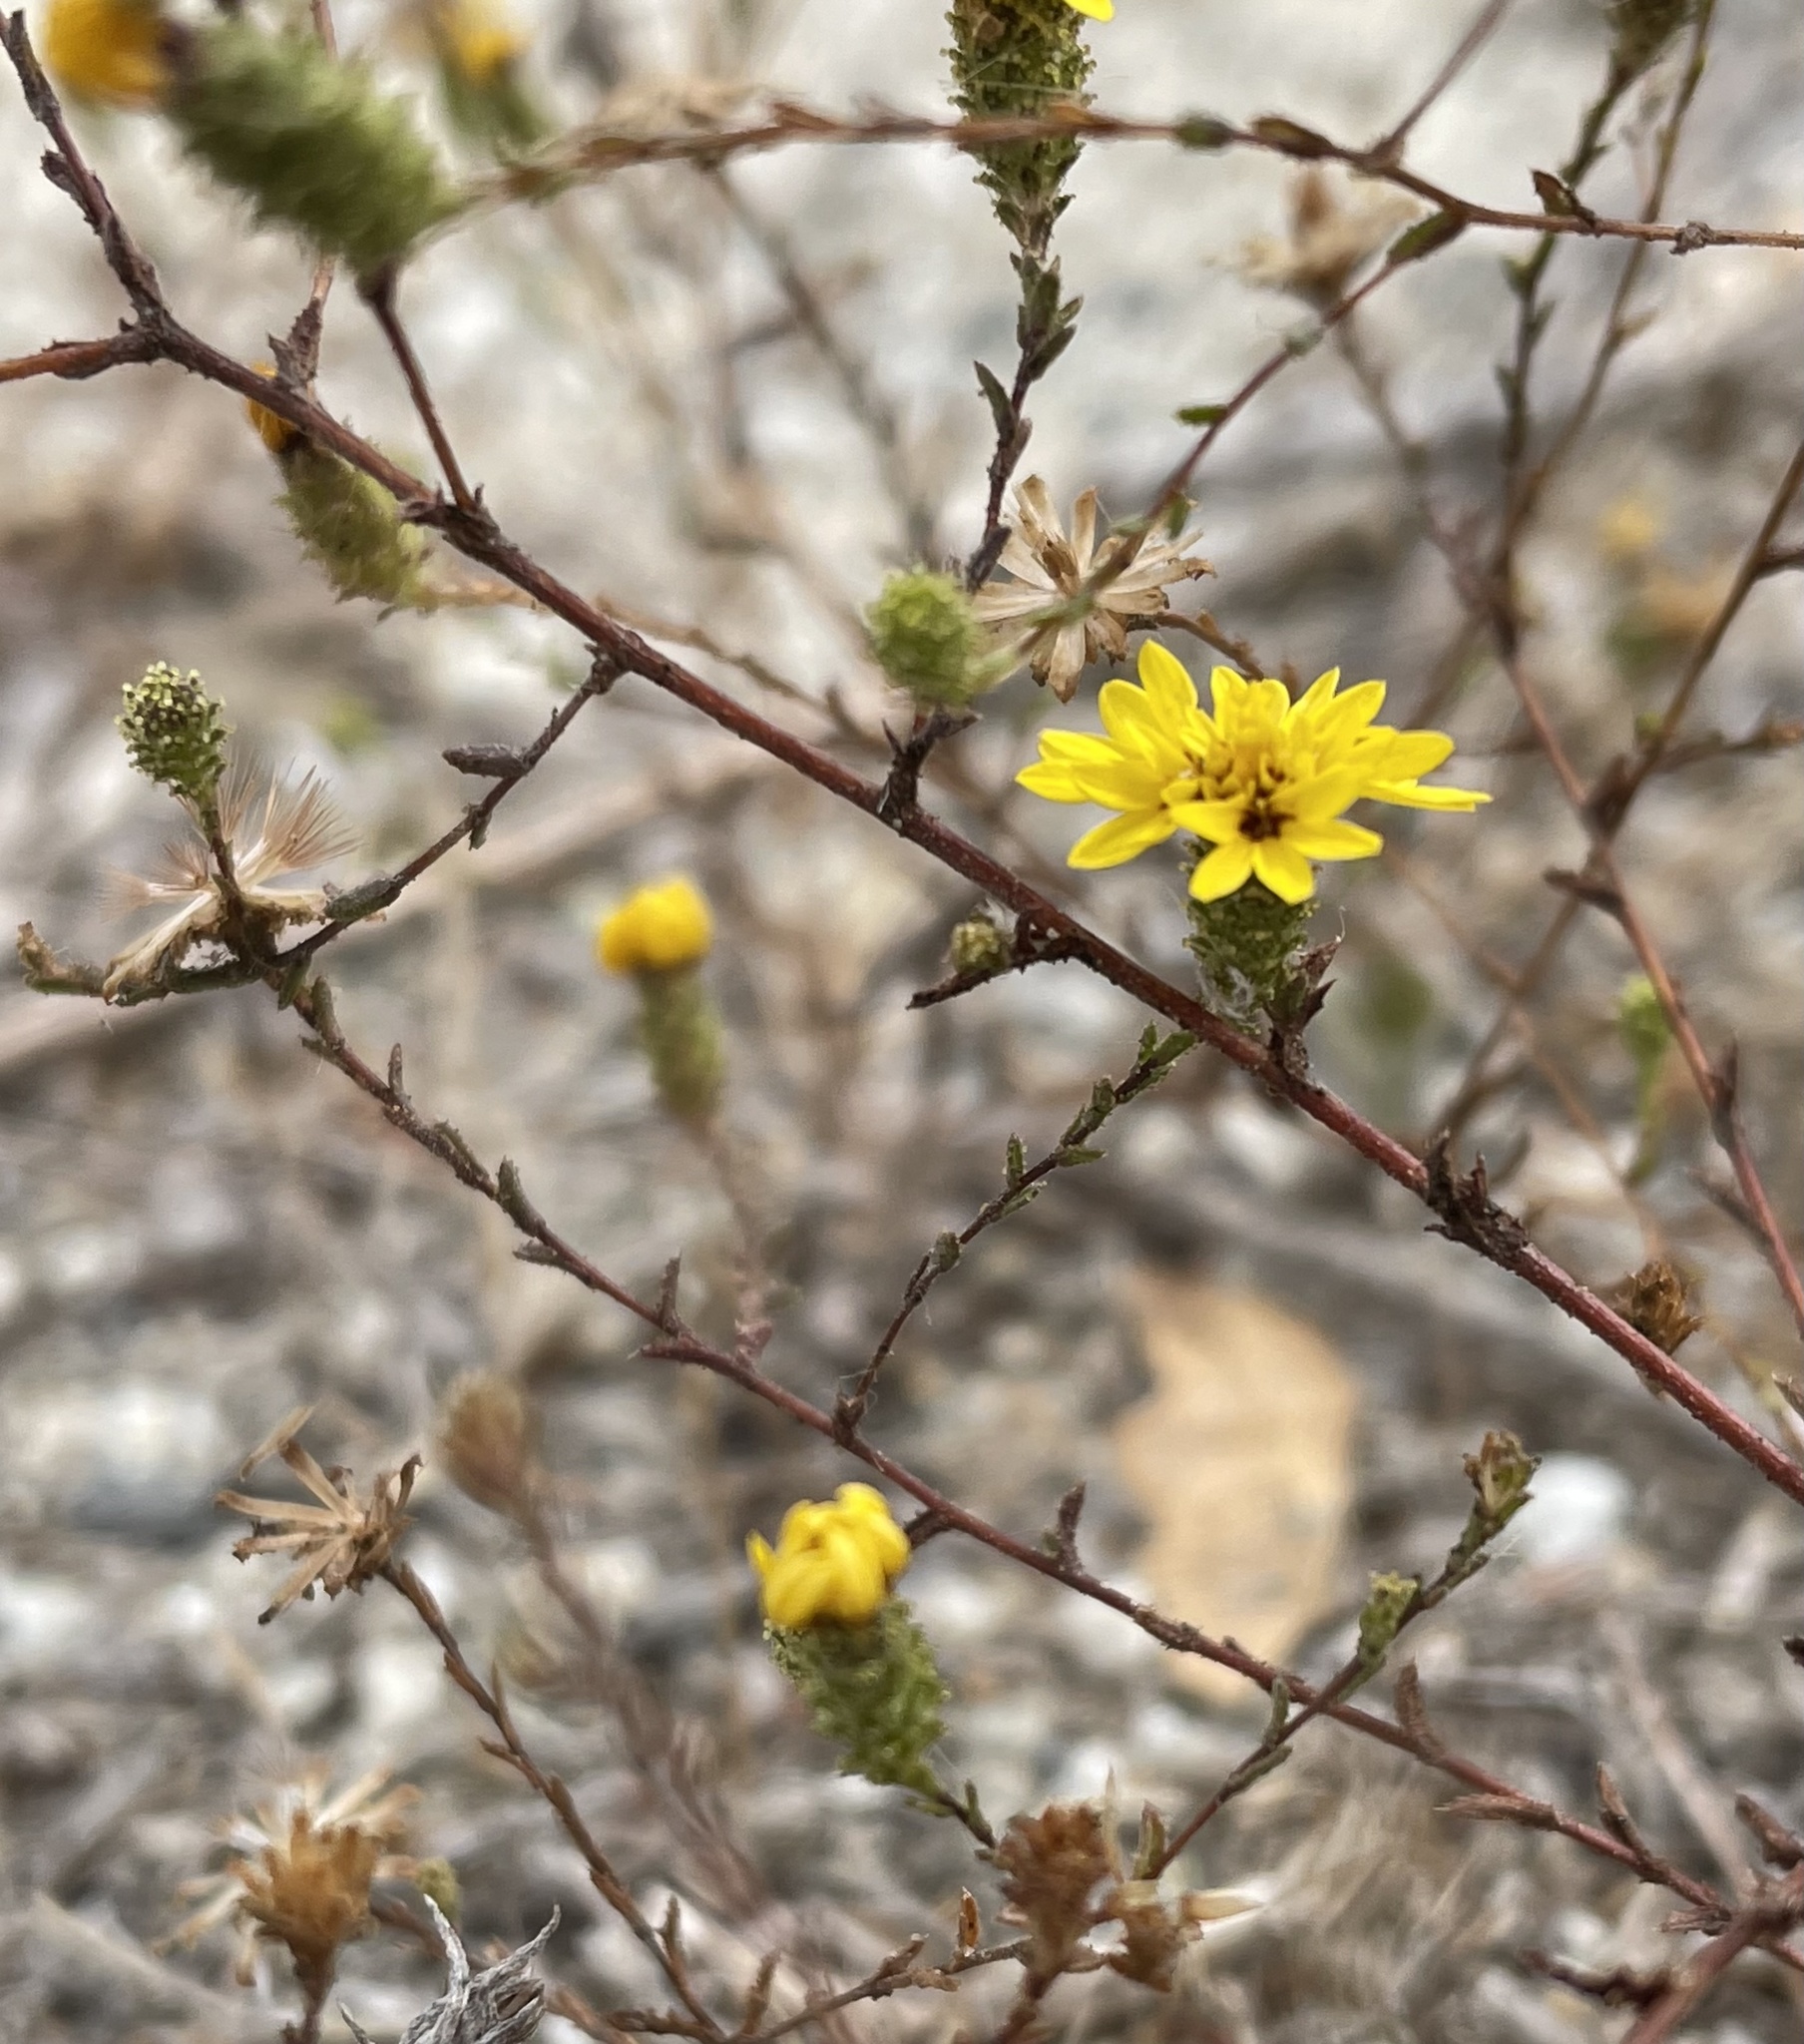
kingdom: Plantae
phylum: Tracheophyta
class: Magnoliopsida
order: Asterales
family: Asteraceae
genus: Lessingia
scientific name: Lessingia pectinata
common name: Valley lessingia
